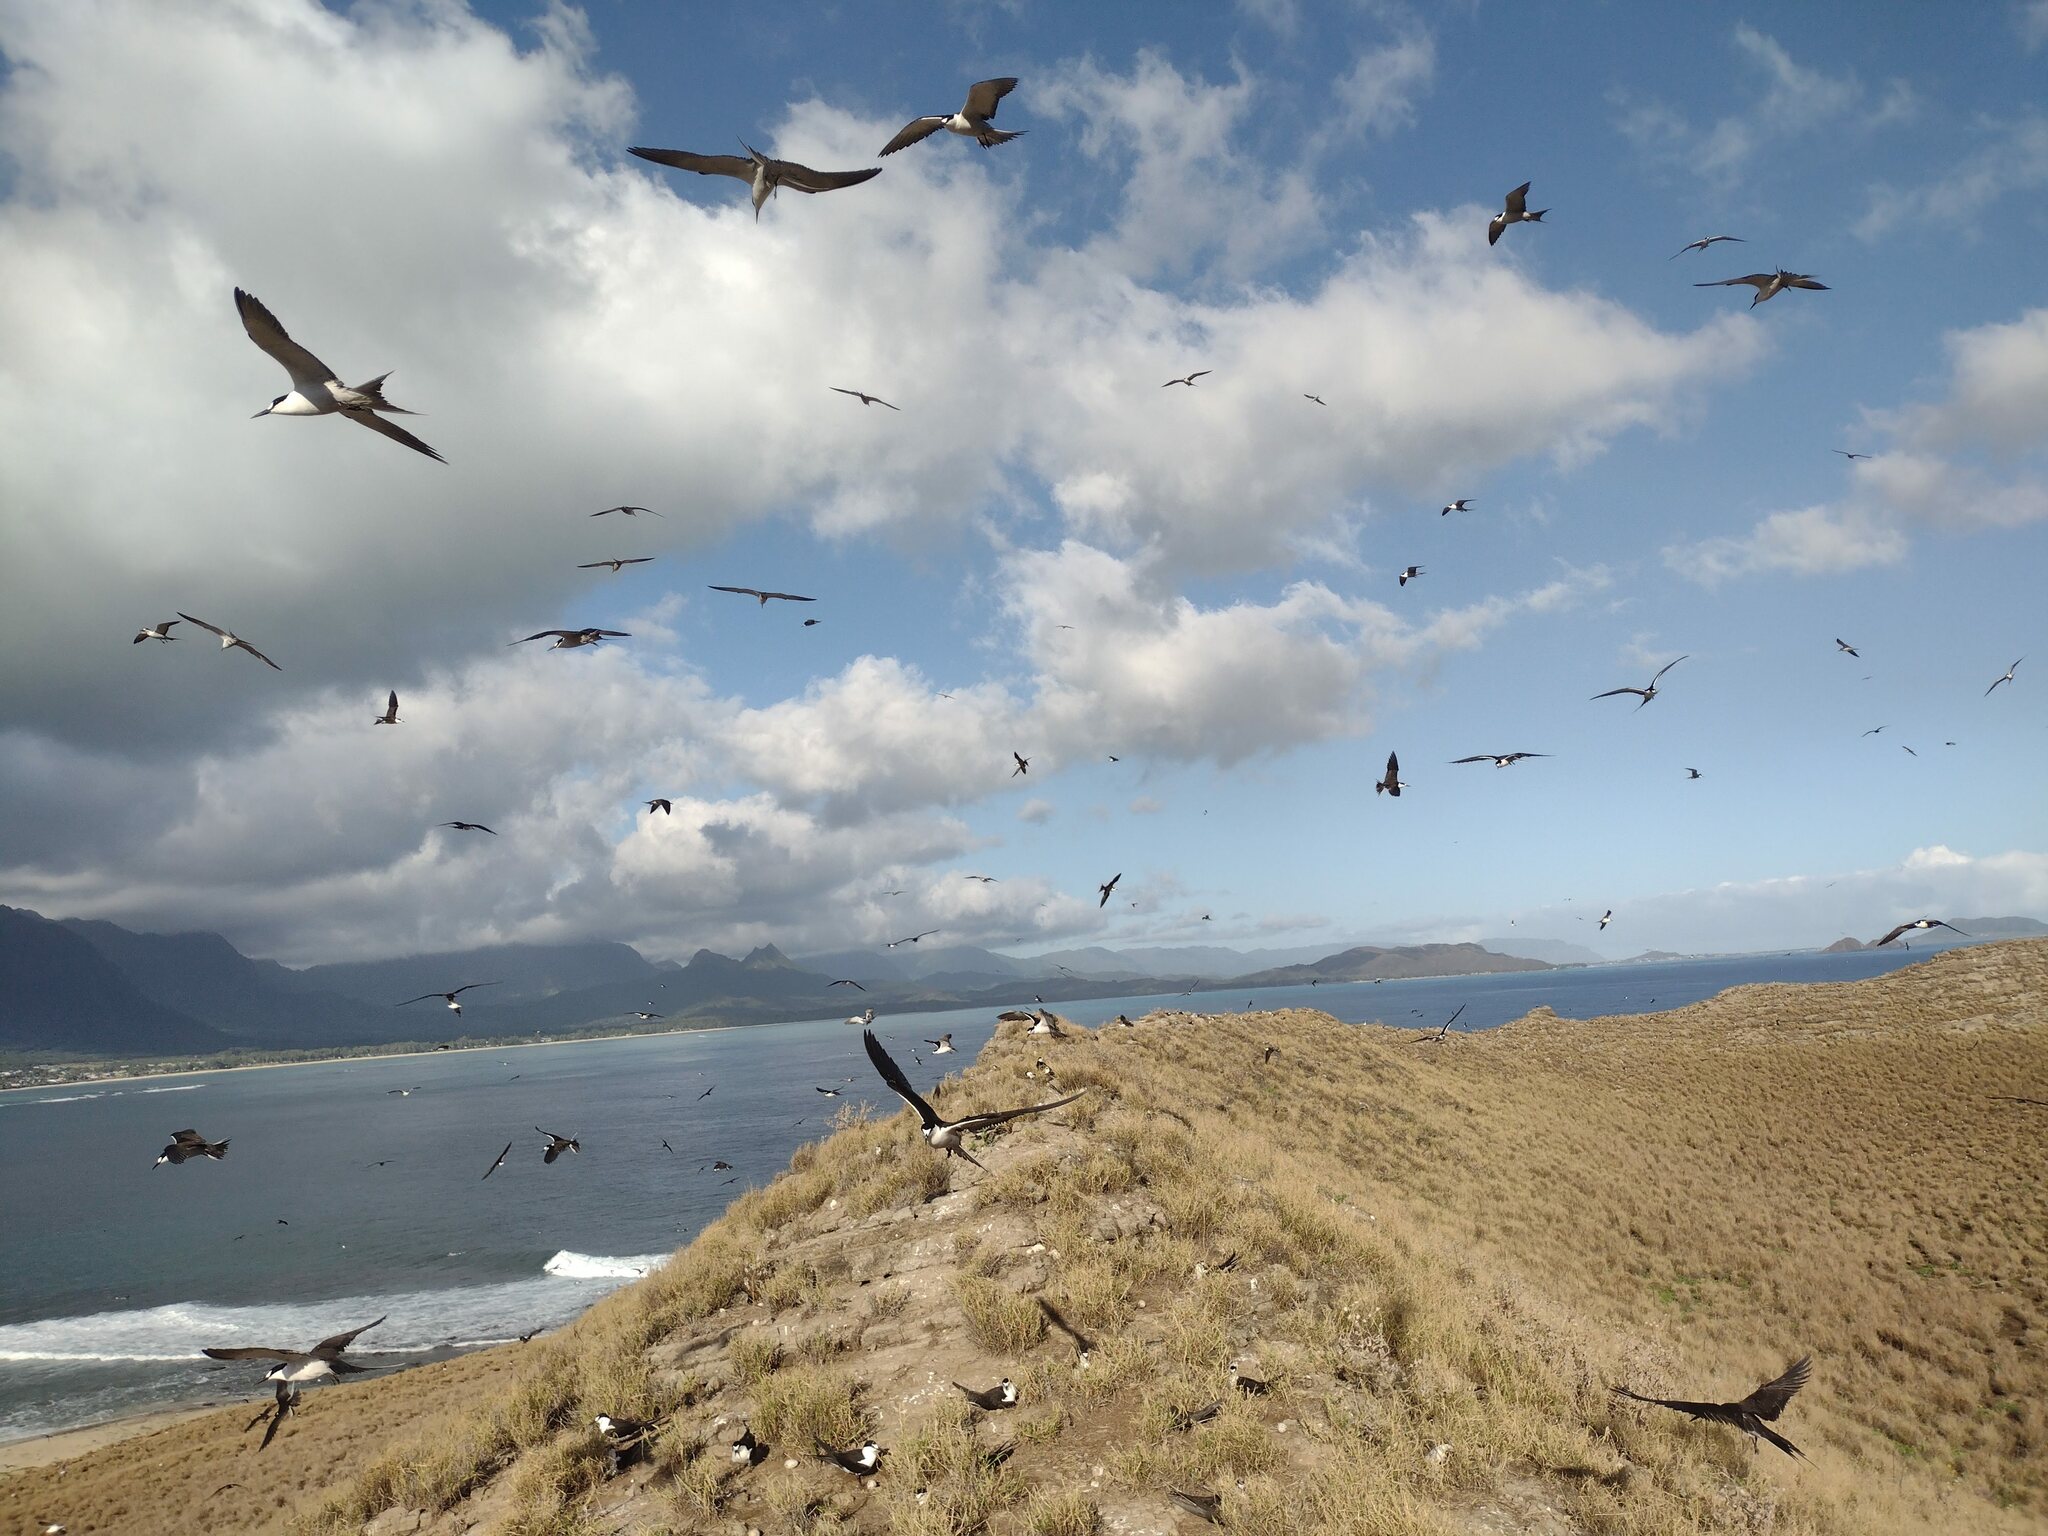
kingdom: Animalia
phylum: Chordata
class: Aves
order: Charadriiformes
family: Laridae
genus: Onychoprion
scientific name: Onychoprion fuscatus
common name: Sooty tern
